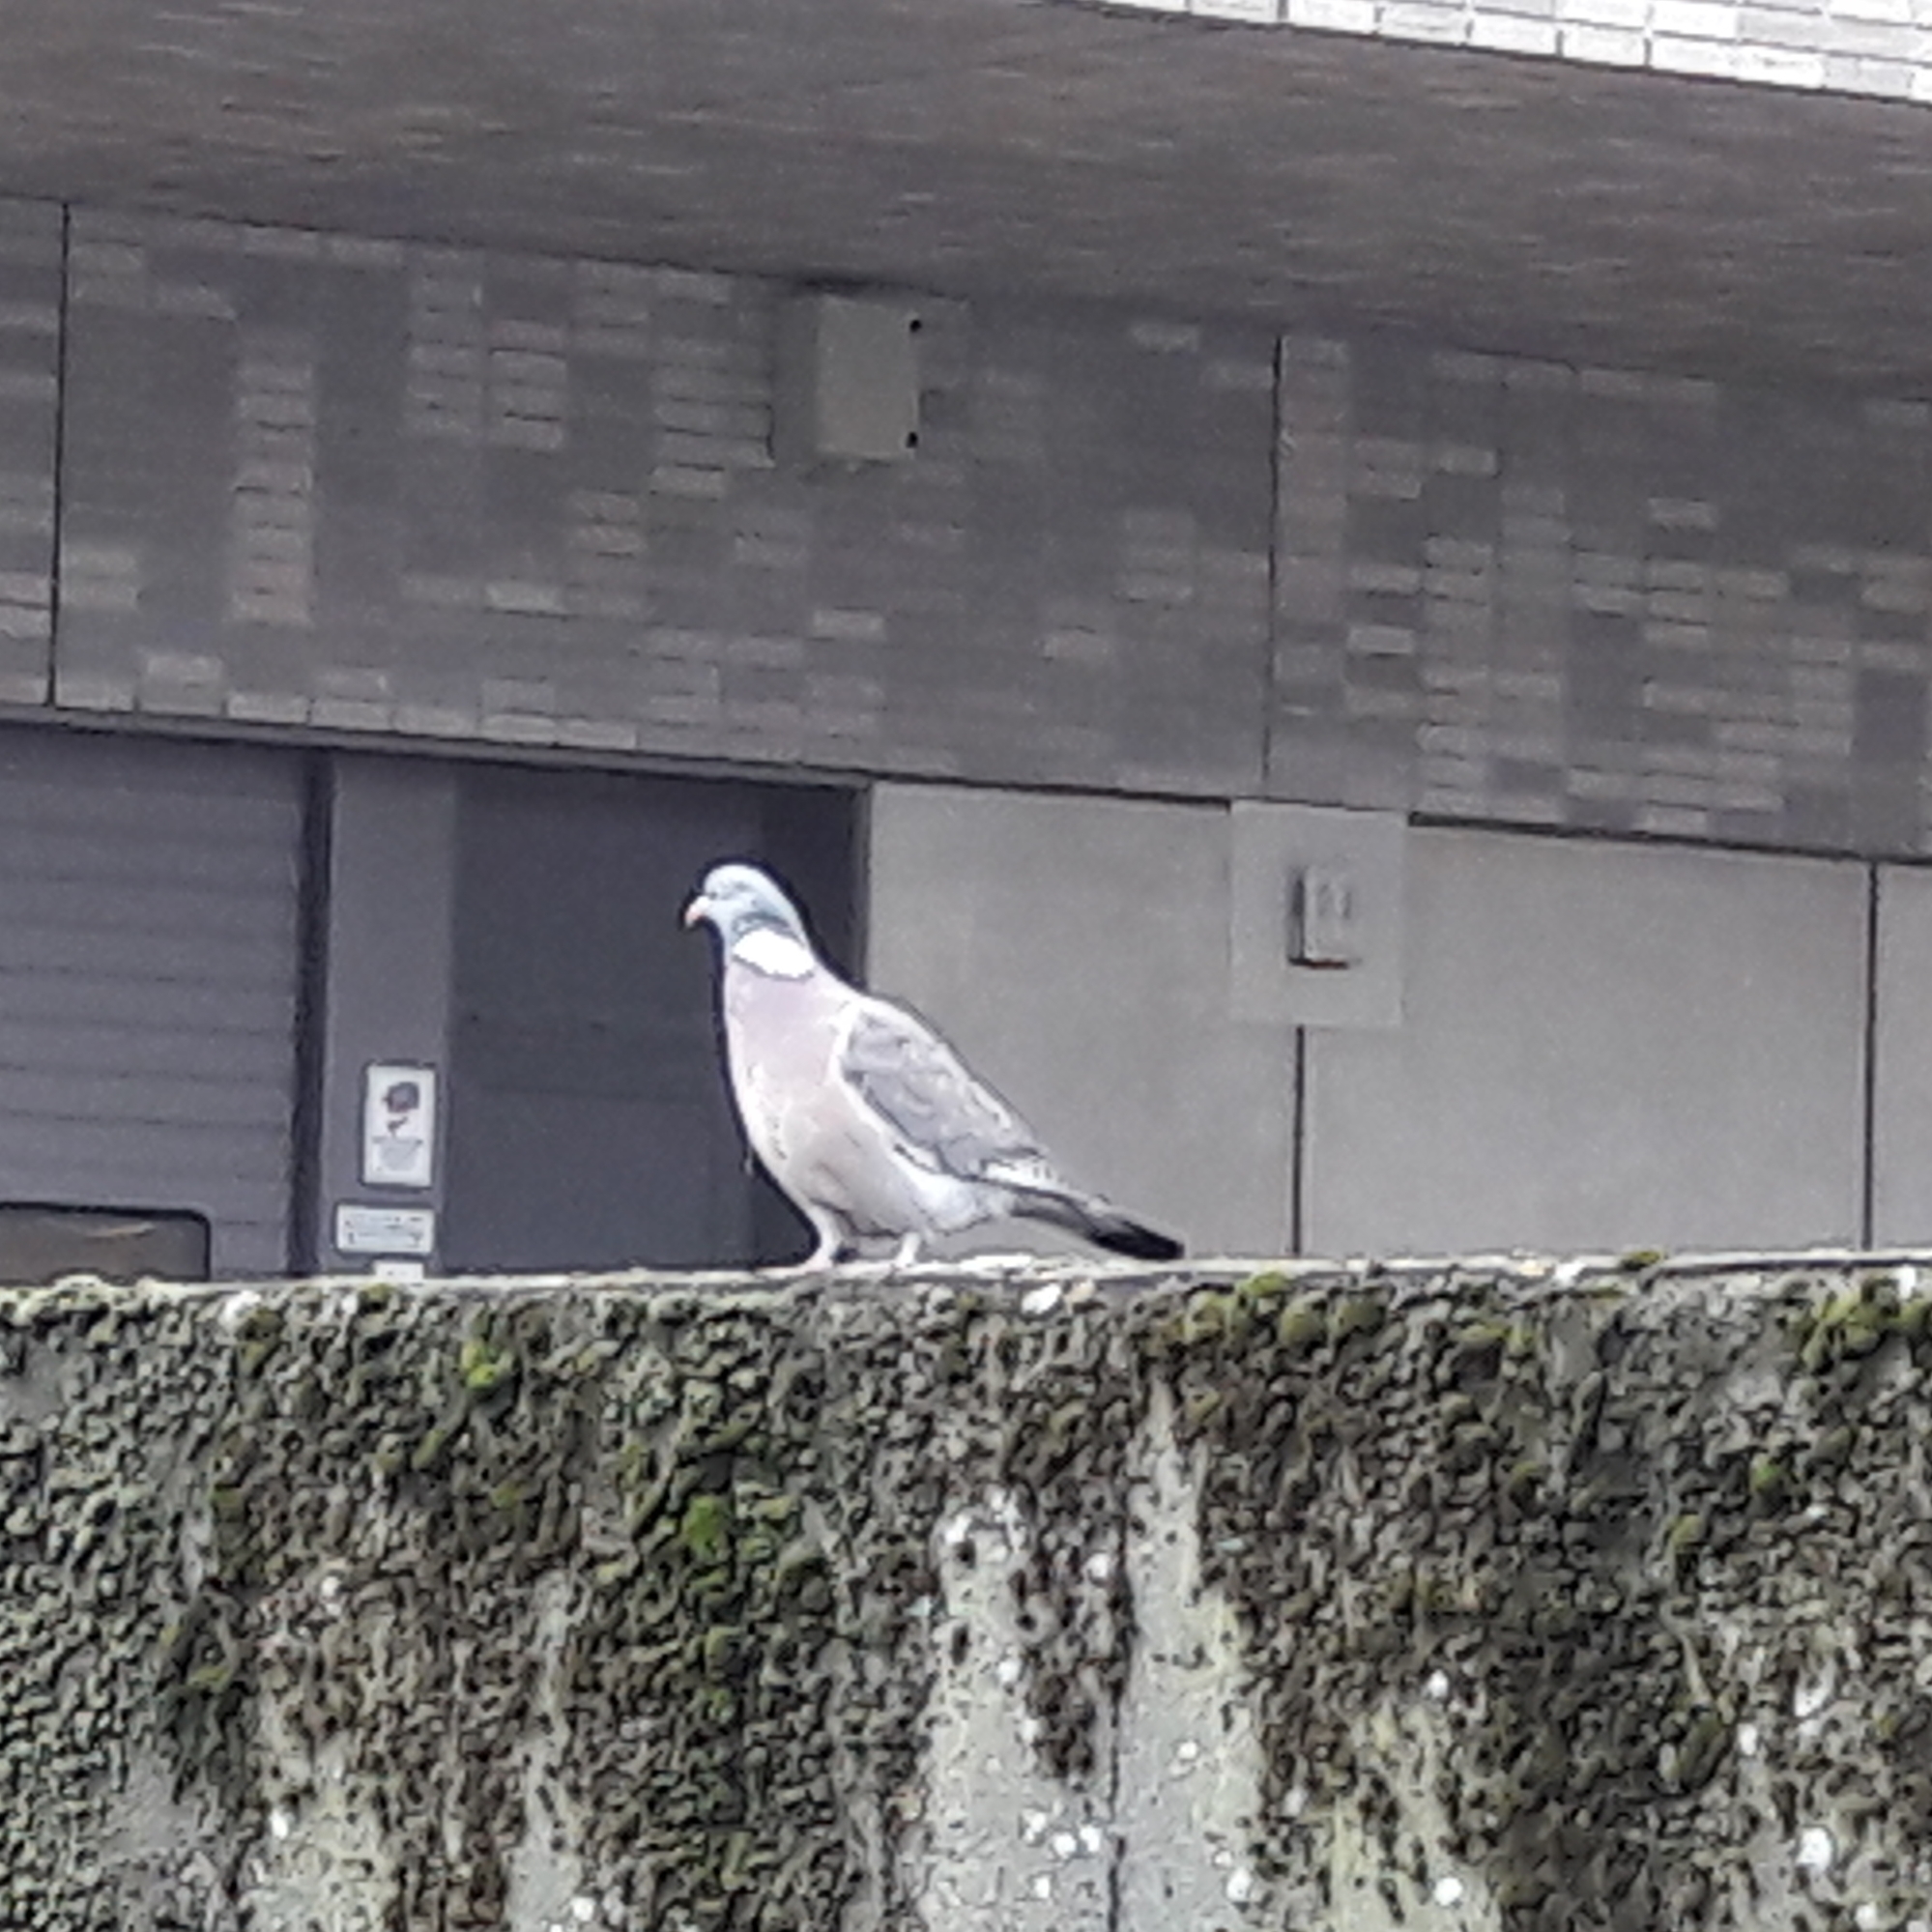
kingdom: Animalia
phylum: Chordata
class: Aves
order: Columbiformes
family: Columbidae
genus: Columba
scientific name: Columba palumbus
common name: Common wood pigeon
